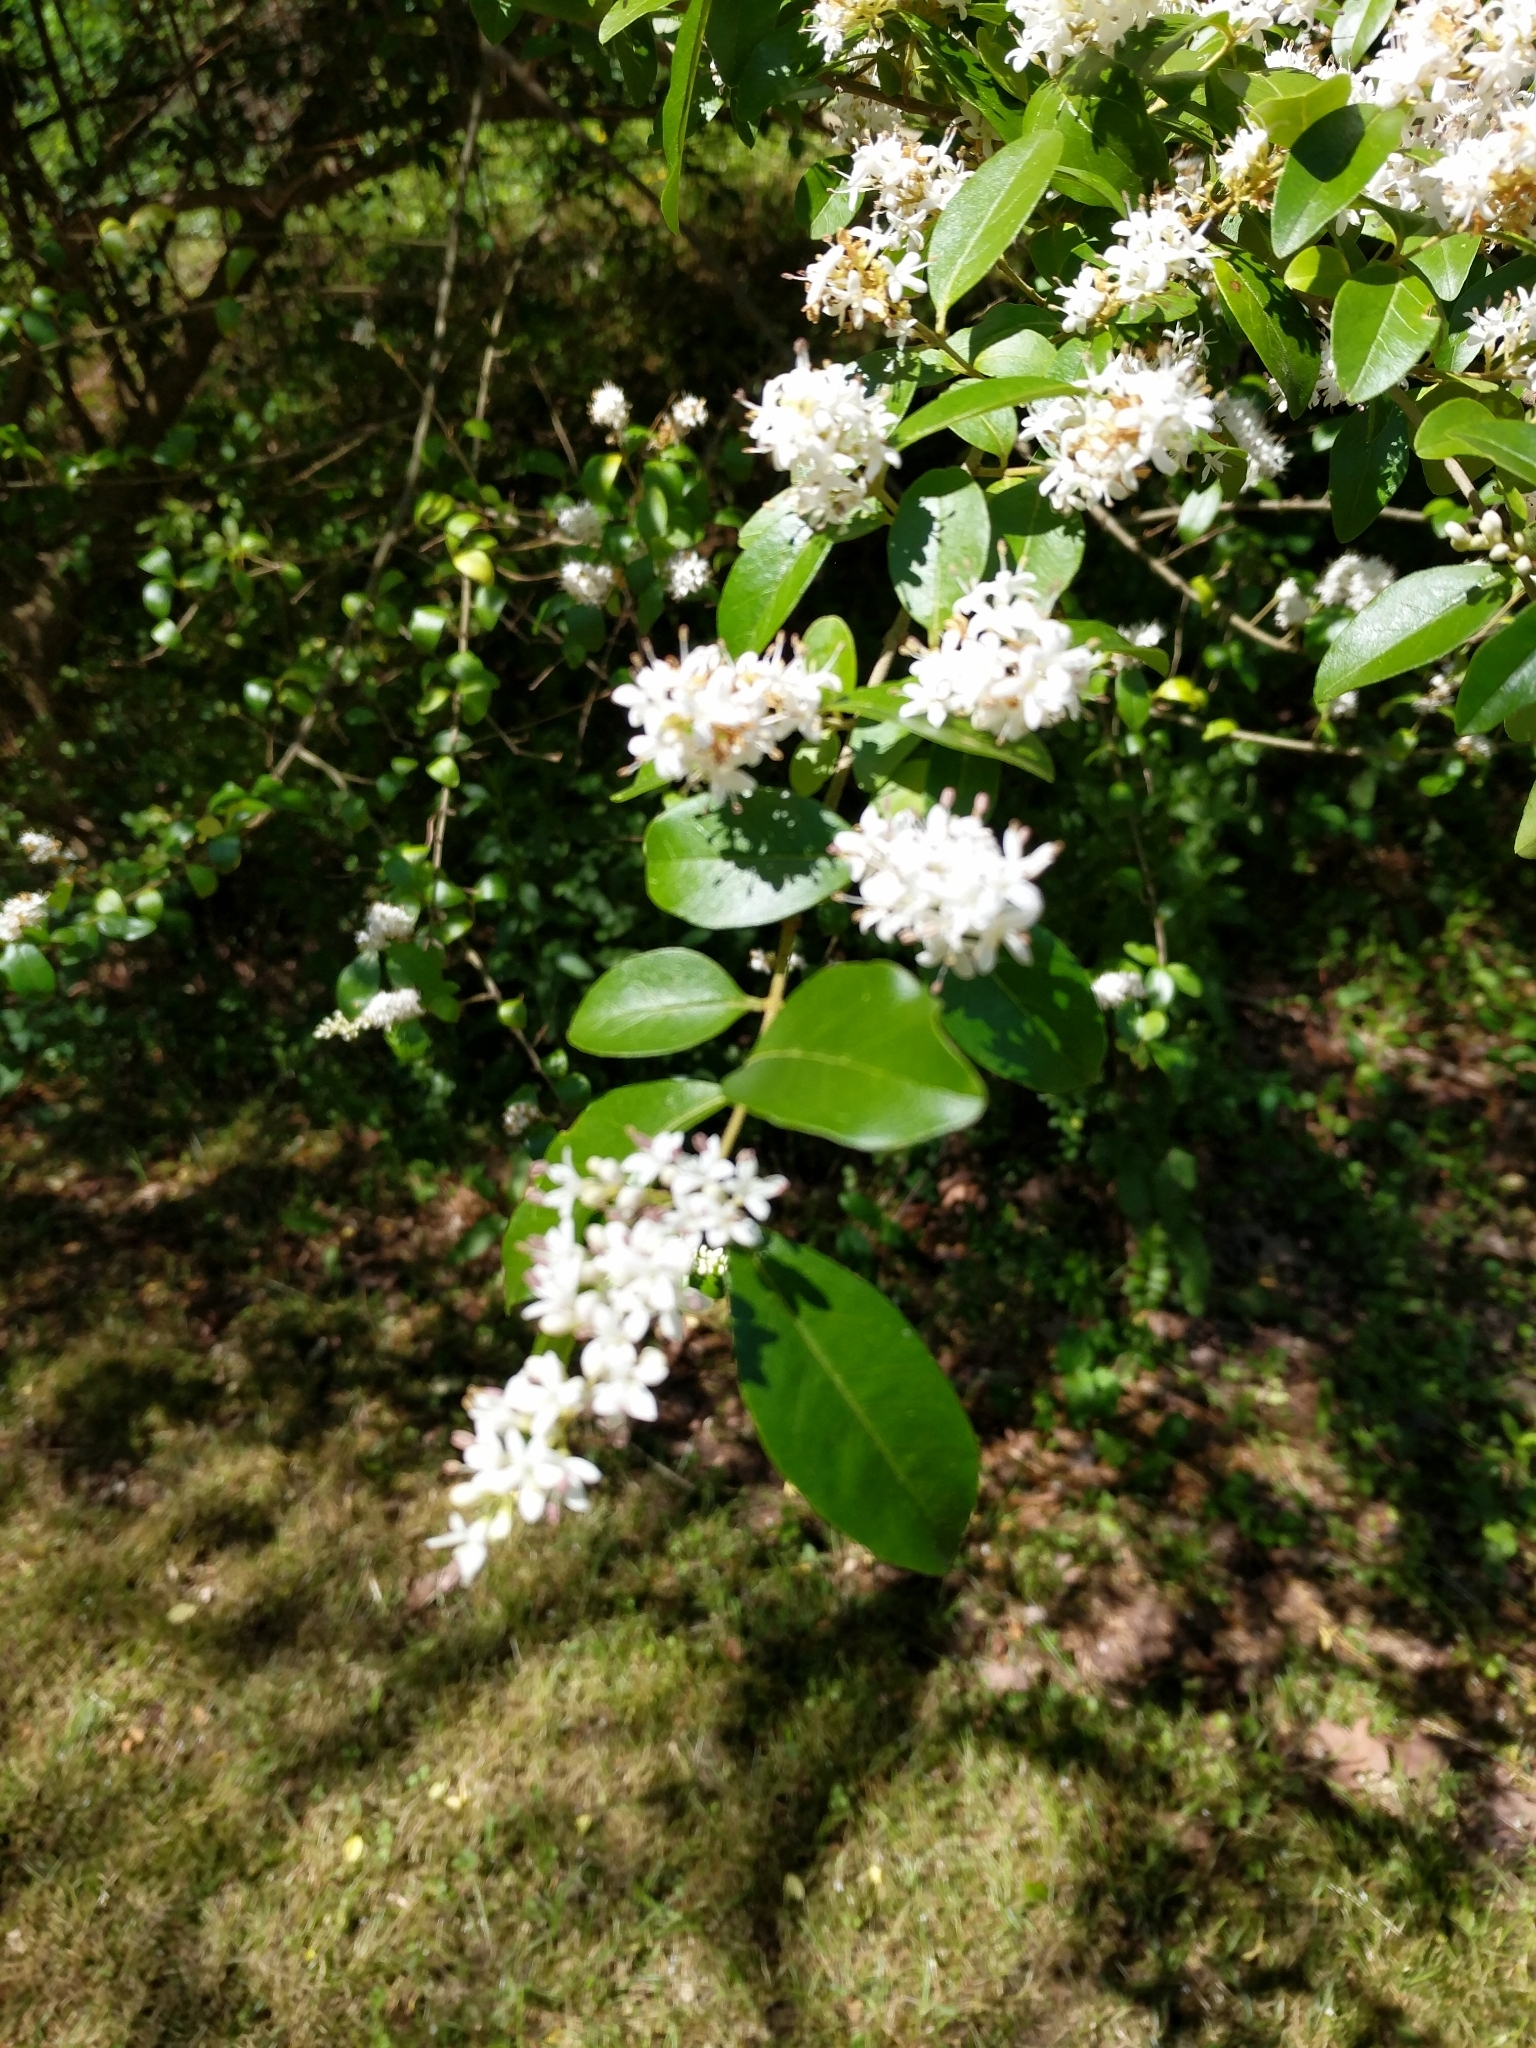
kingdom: Plantae
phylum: Tracheophyta
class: Magnoliopsida
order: Lamiales
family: Oleaceae
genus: Ligustrum
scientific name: Ligustrum sinense
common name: Chinese privet
